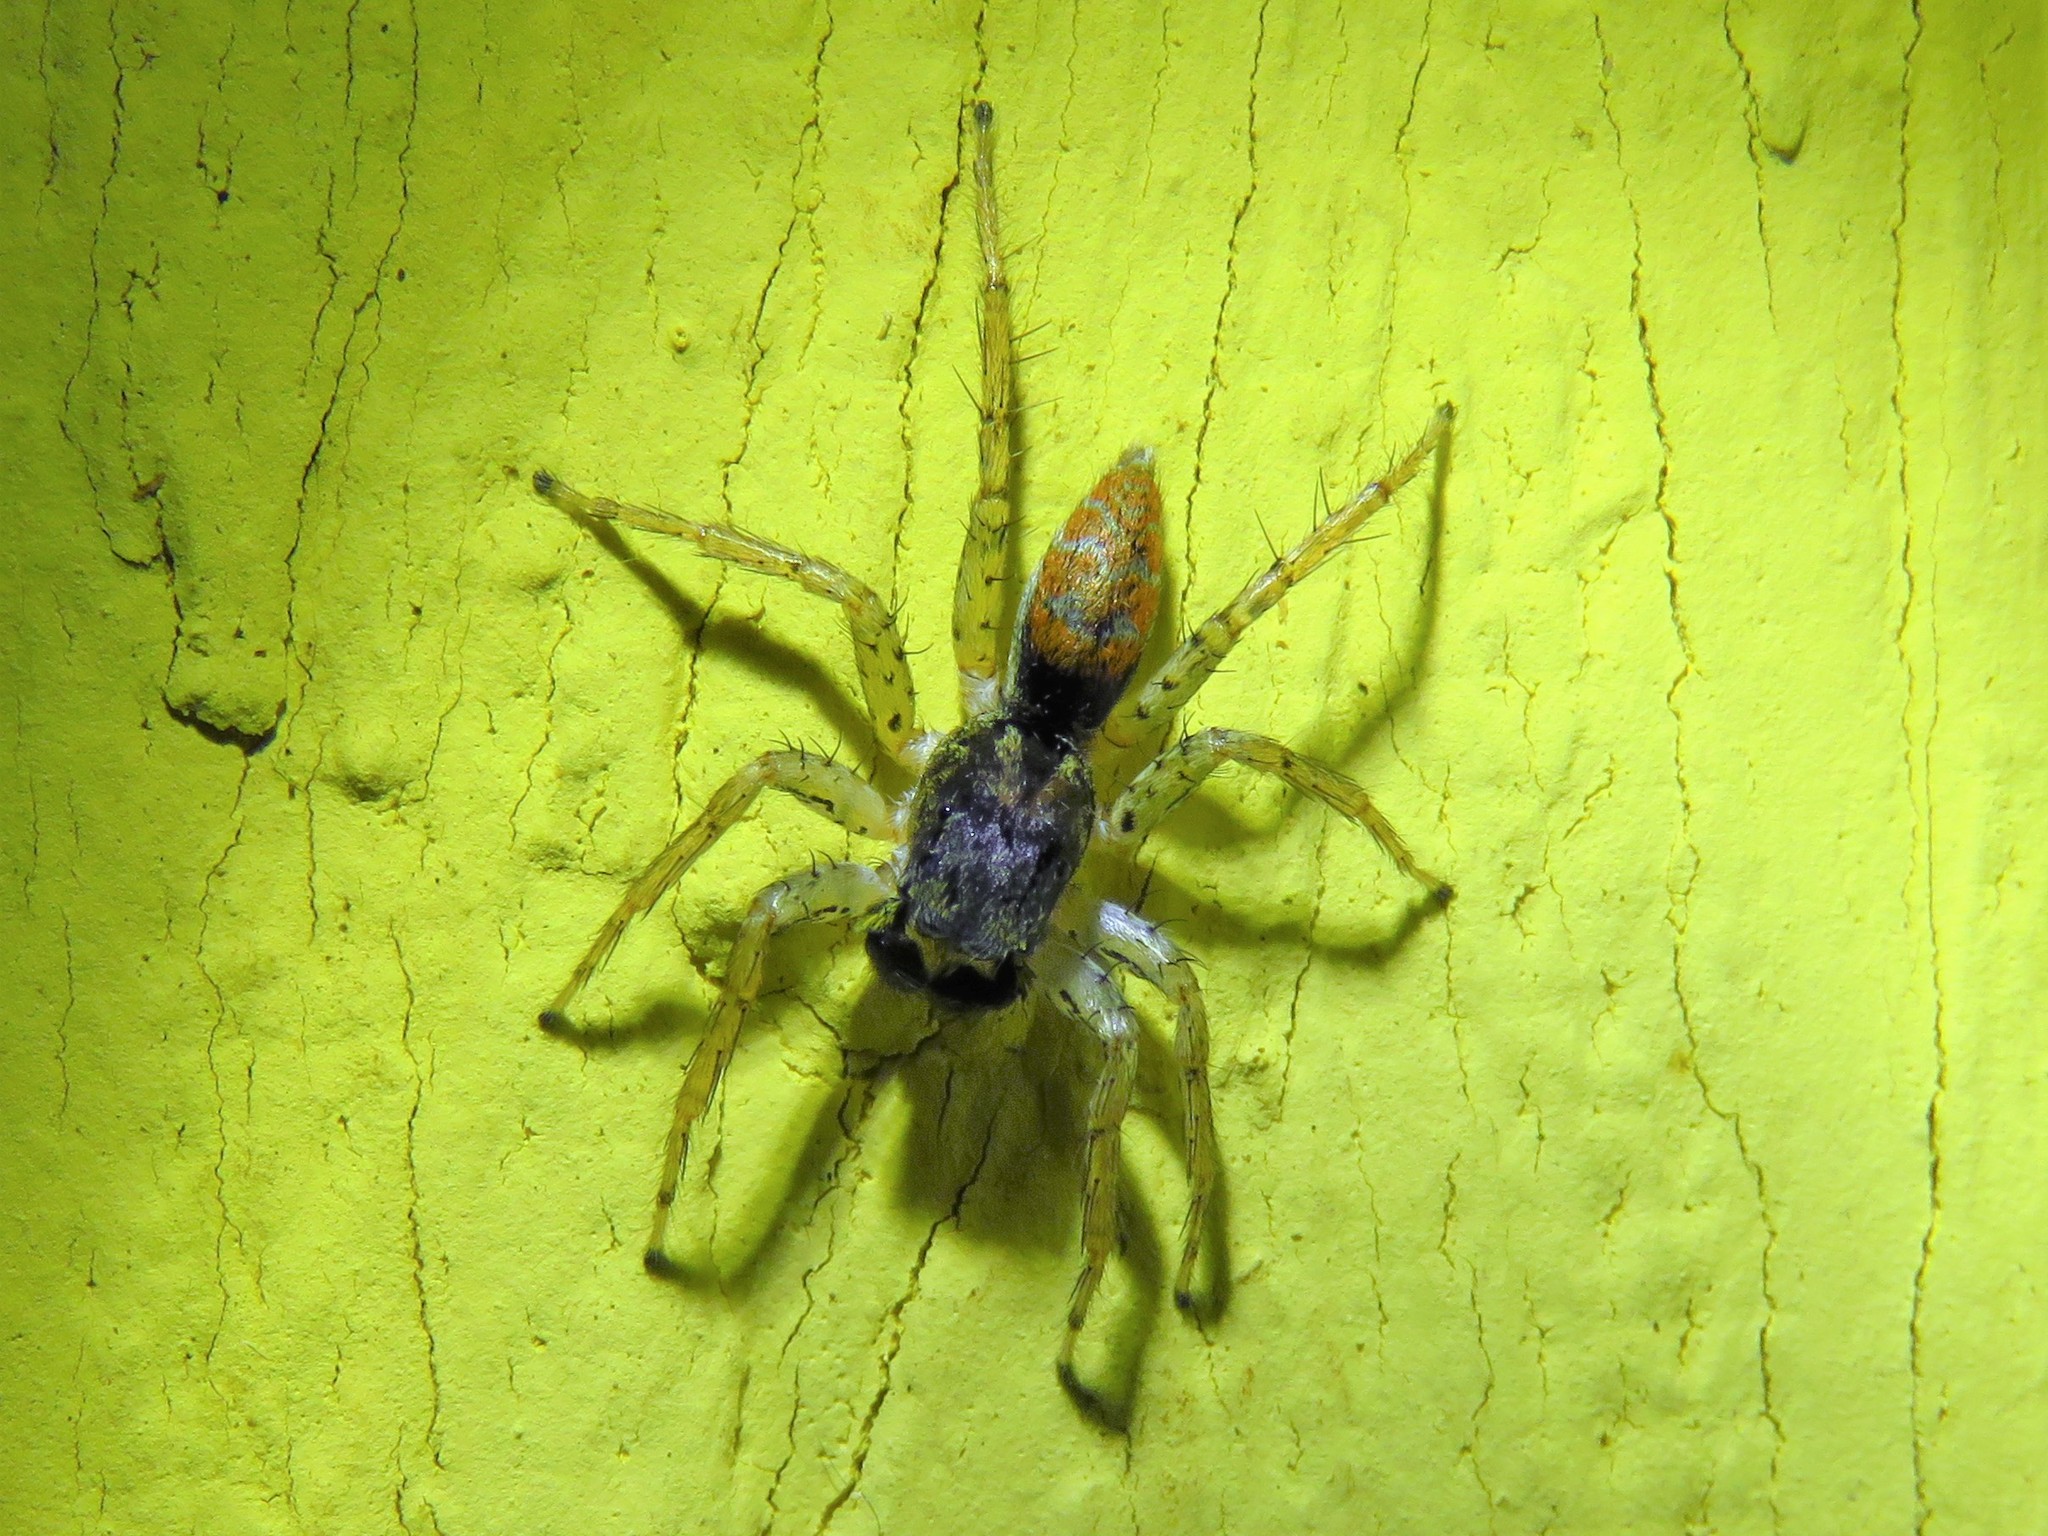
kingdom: Animalia
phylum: Arthropoda
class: Arachnida
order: Araneae
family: Salticidae
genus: Maevia
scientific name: Maevia inclemens
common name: Dimorphic jumper
